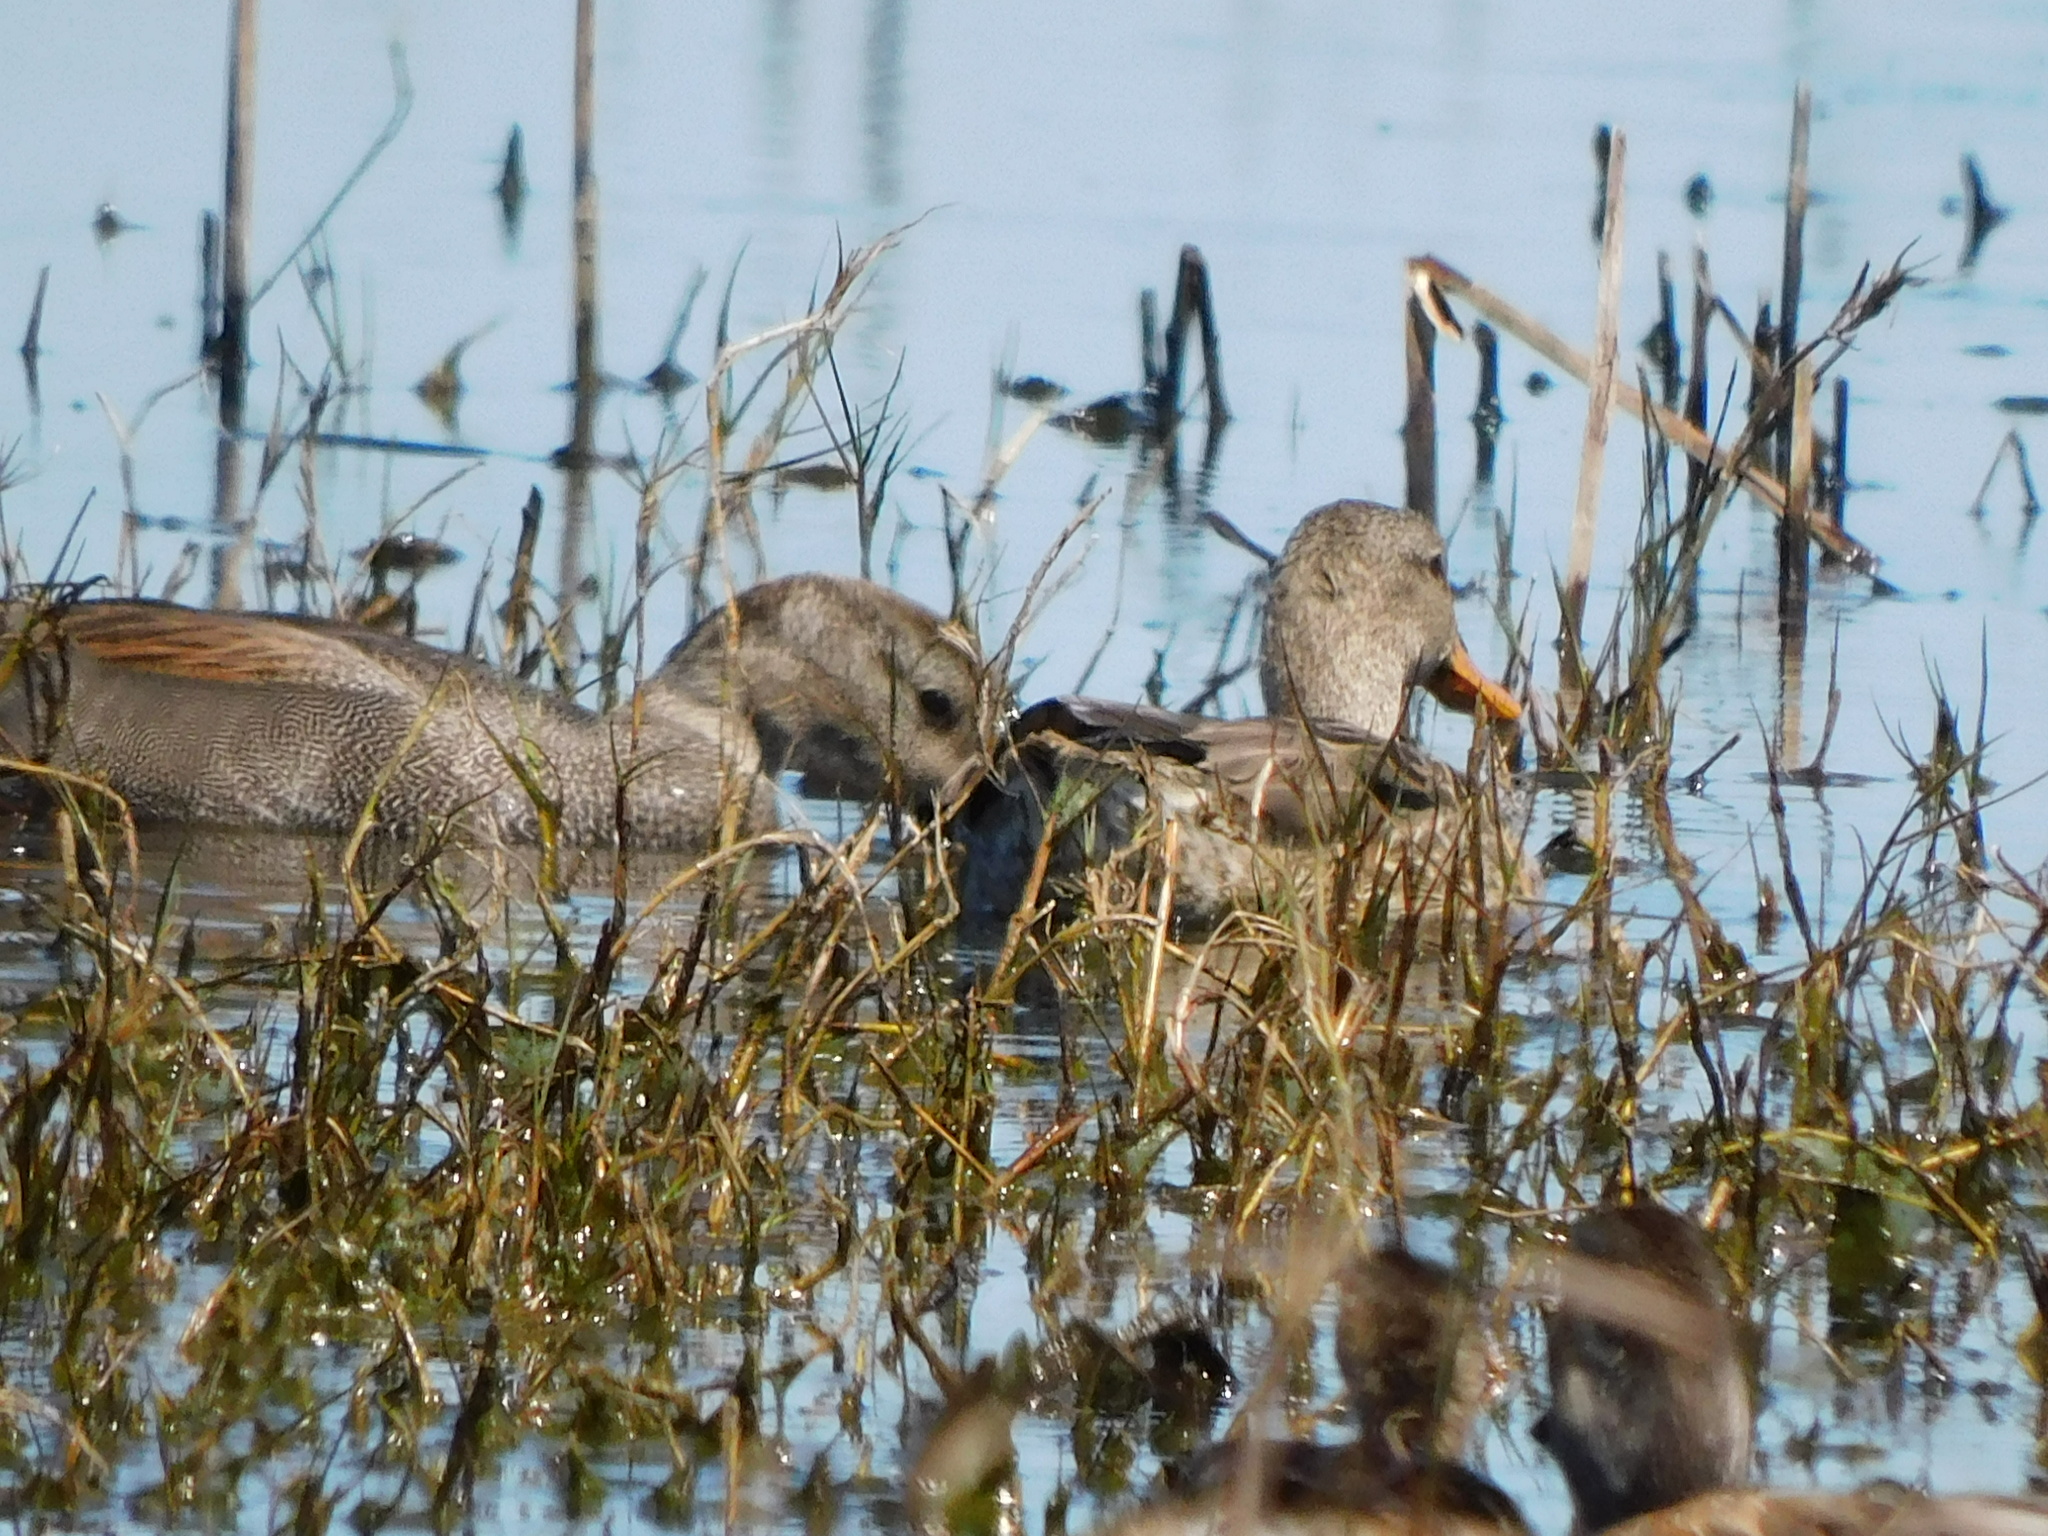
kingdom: Animalia
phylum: Chordata
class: Aves
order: Anseriformes
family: Anatidae
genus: Mareca
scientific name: Mareca strepera
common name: Gadwall
